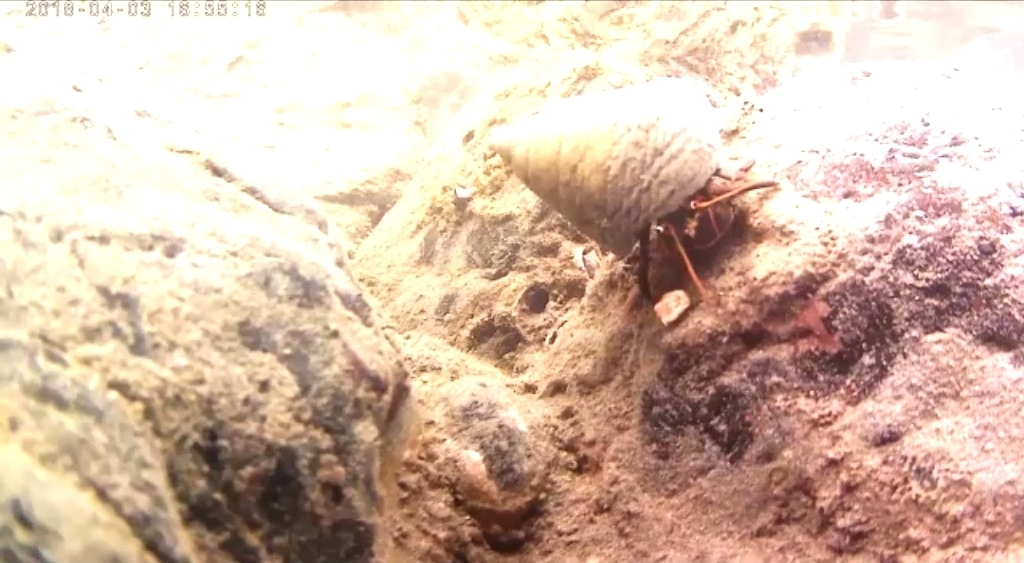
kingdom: Animalia
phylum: Arthropoda
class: Malacostraca
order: Decapoda
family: Diogenidae
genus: Calcinus
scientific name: Calcinus obscurus
